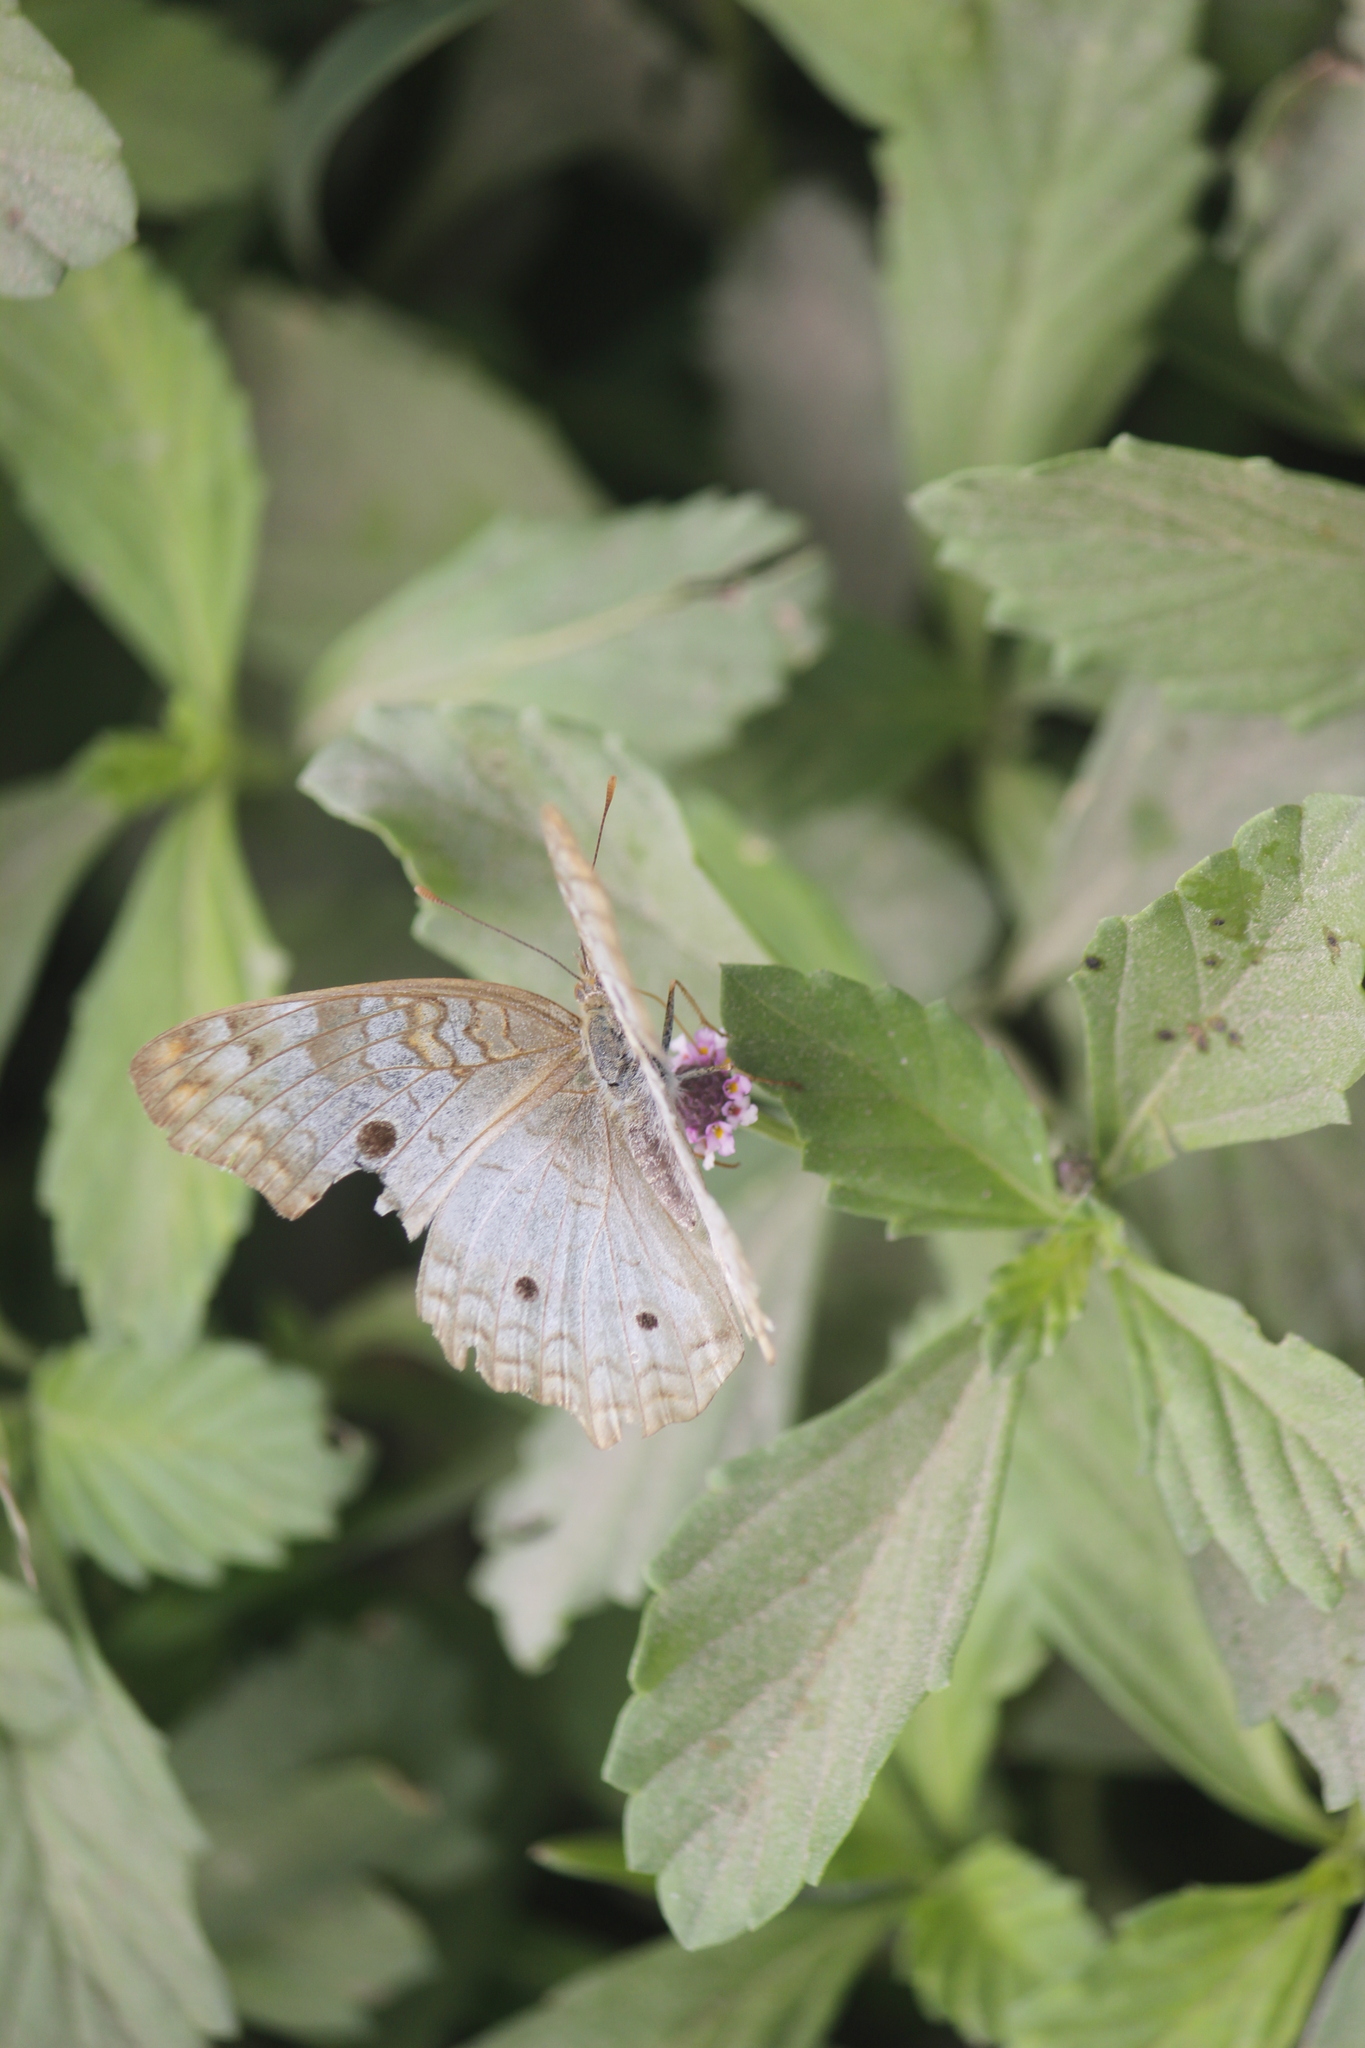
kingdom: Animalia
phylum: Arthropoda
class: Insecta
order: Lepidoptera
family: Nymphalidae
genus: Anartia
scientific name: Anartia jatrophae
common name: White peacock
